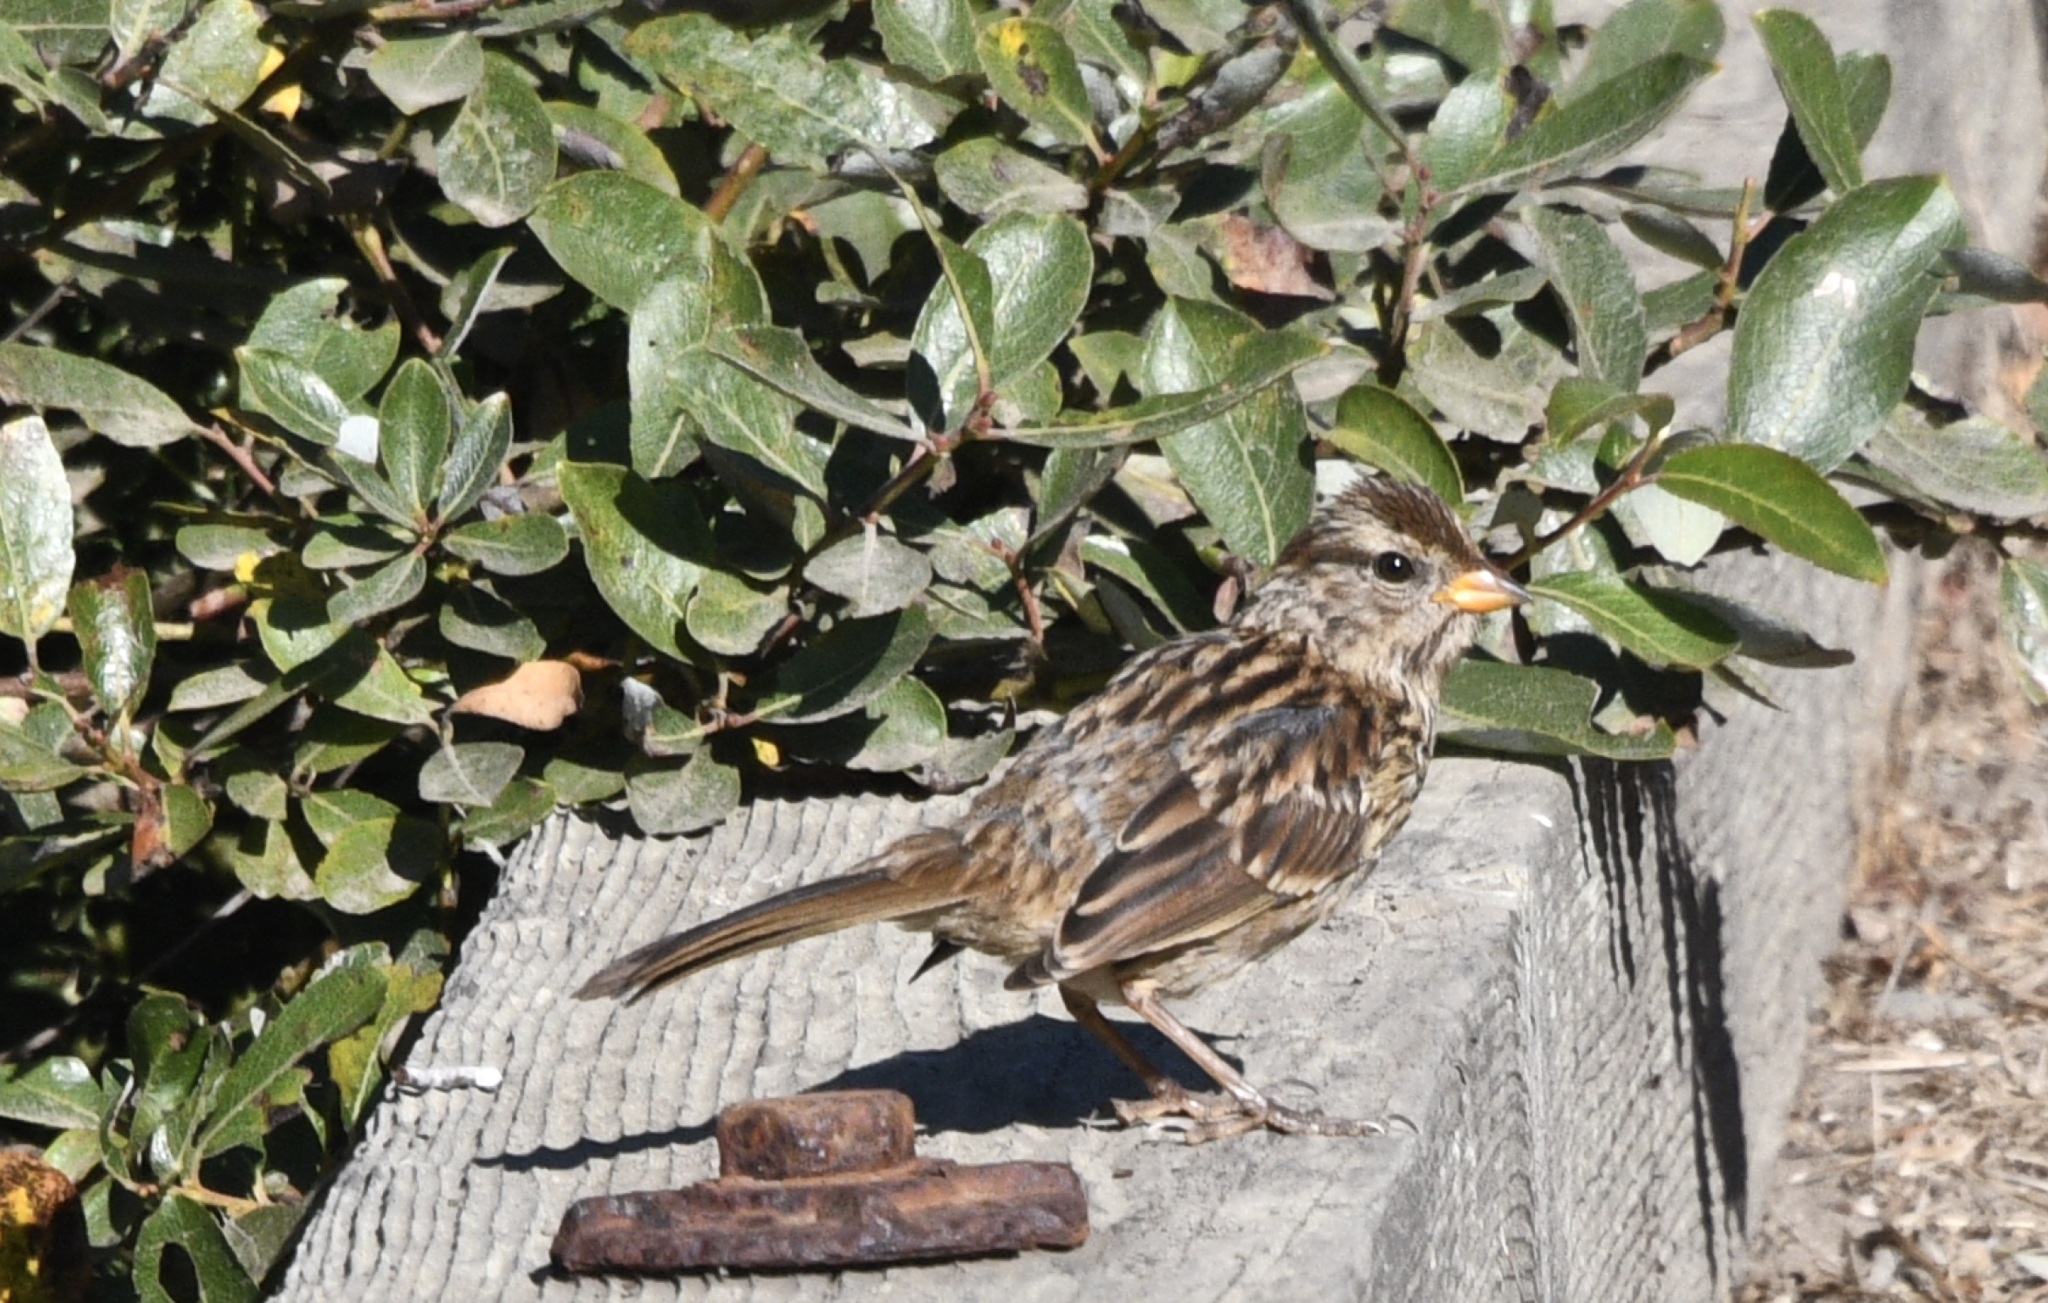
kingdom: Animalia
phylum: Chordata
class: Aves
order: Passeriformes
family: Passerellidae
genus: Zonotrichia
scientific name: Zonotrichia leucophrys
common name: White-crowned sparrow
